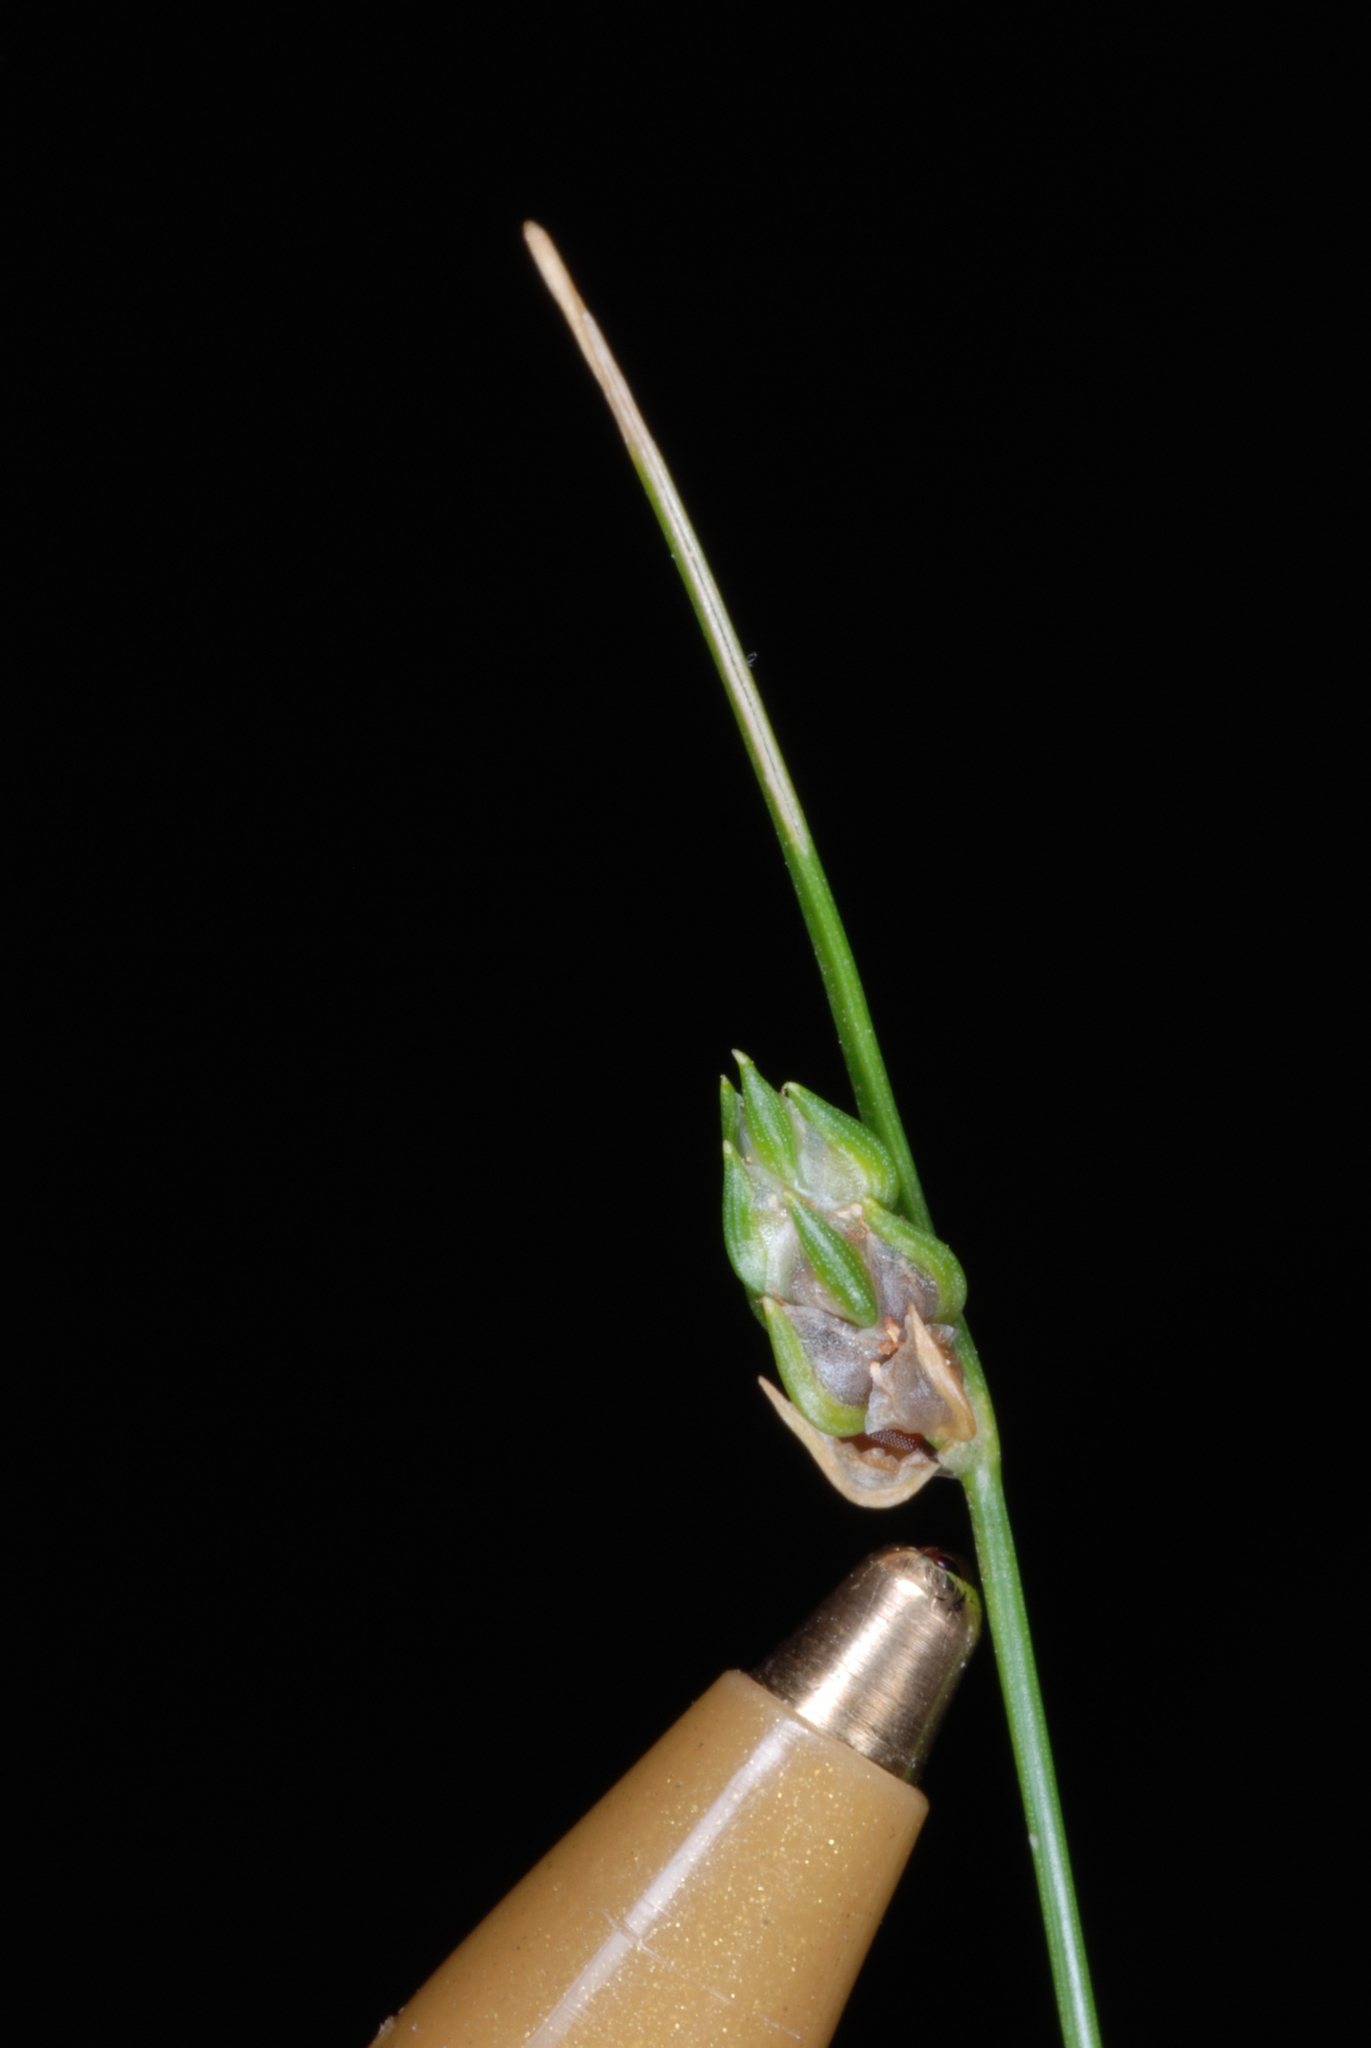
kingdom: Plantae
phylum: Tracheophyta
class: Liliopsida
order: Poales
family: Cyperaceae
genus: Isolepis
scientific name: Isolepis carinata
